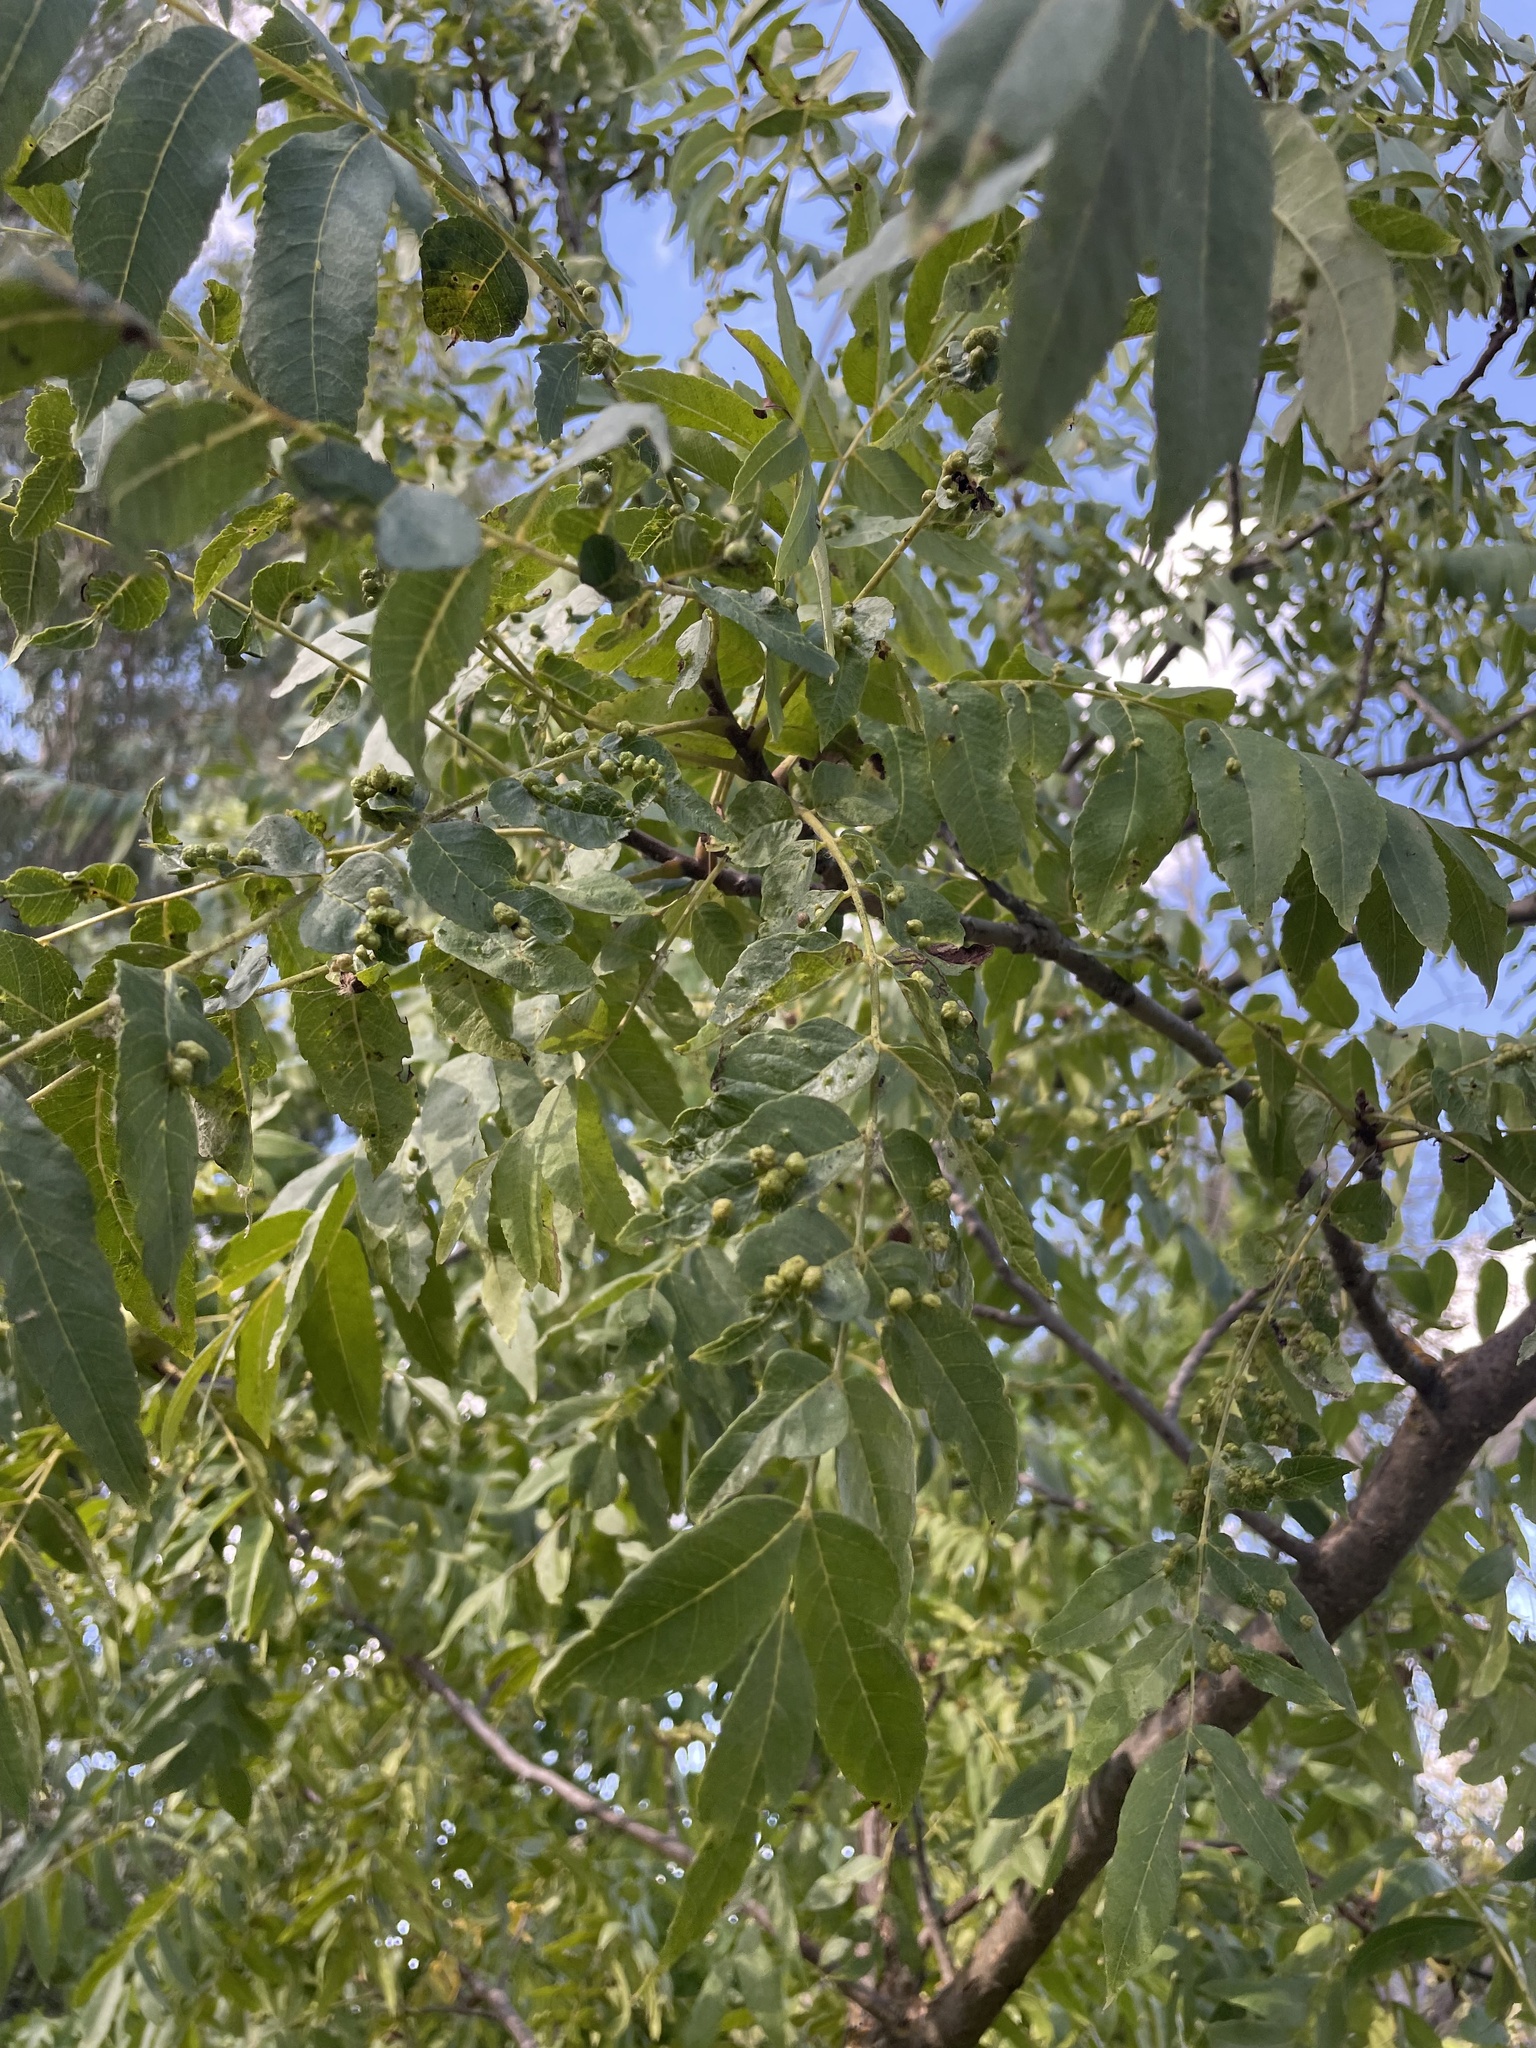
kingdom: Animalia
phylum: Arthropoda
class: Arachnida
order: Trombidiformes
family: Eriophyidae
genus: Aceria
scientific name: Aceria brachytarsus
